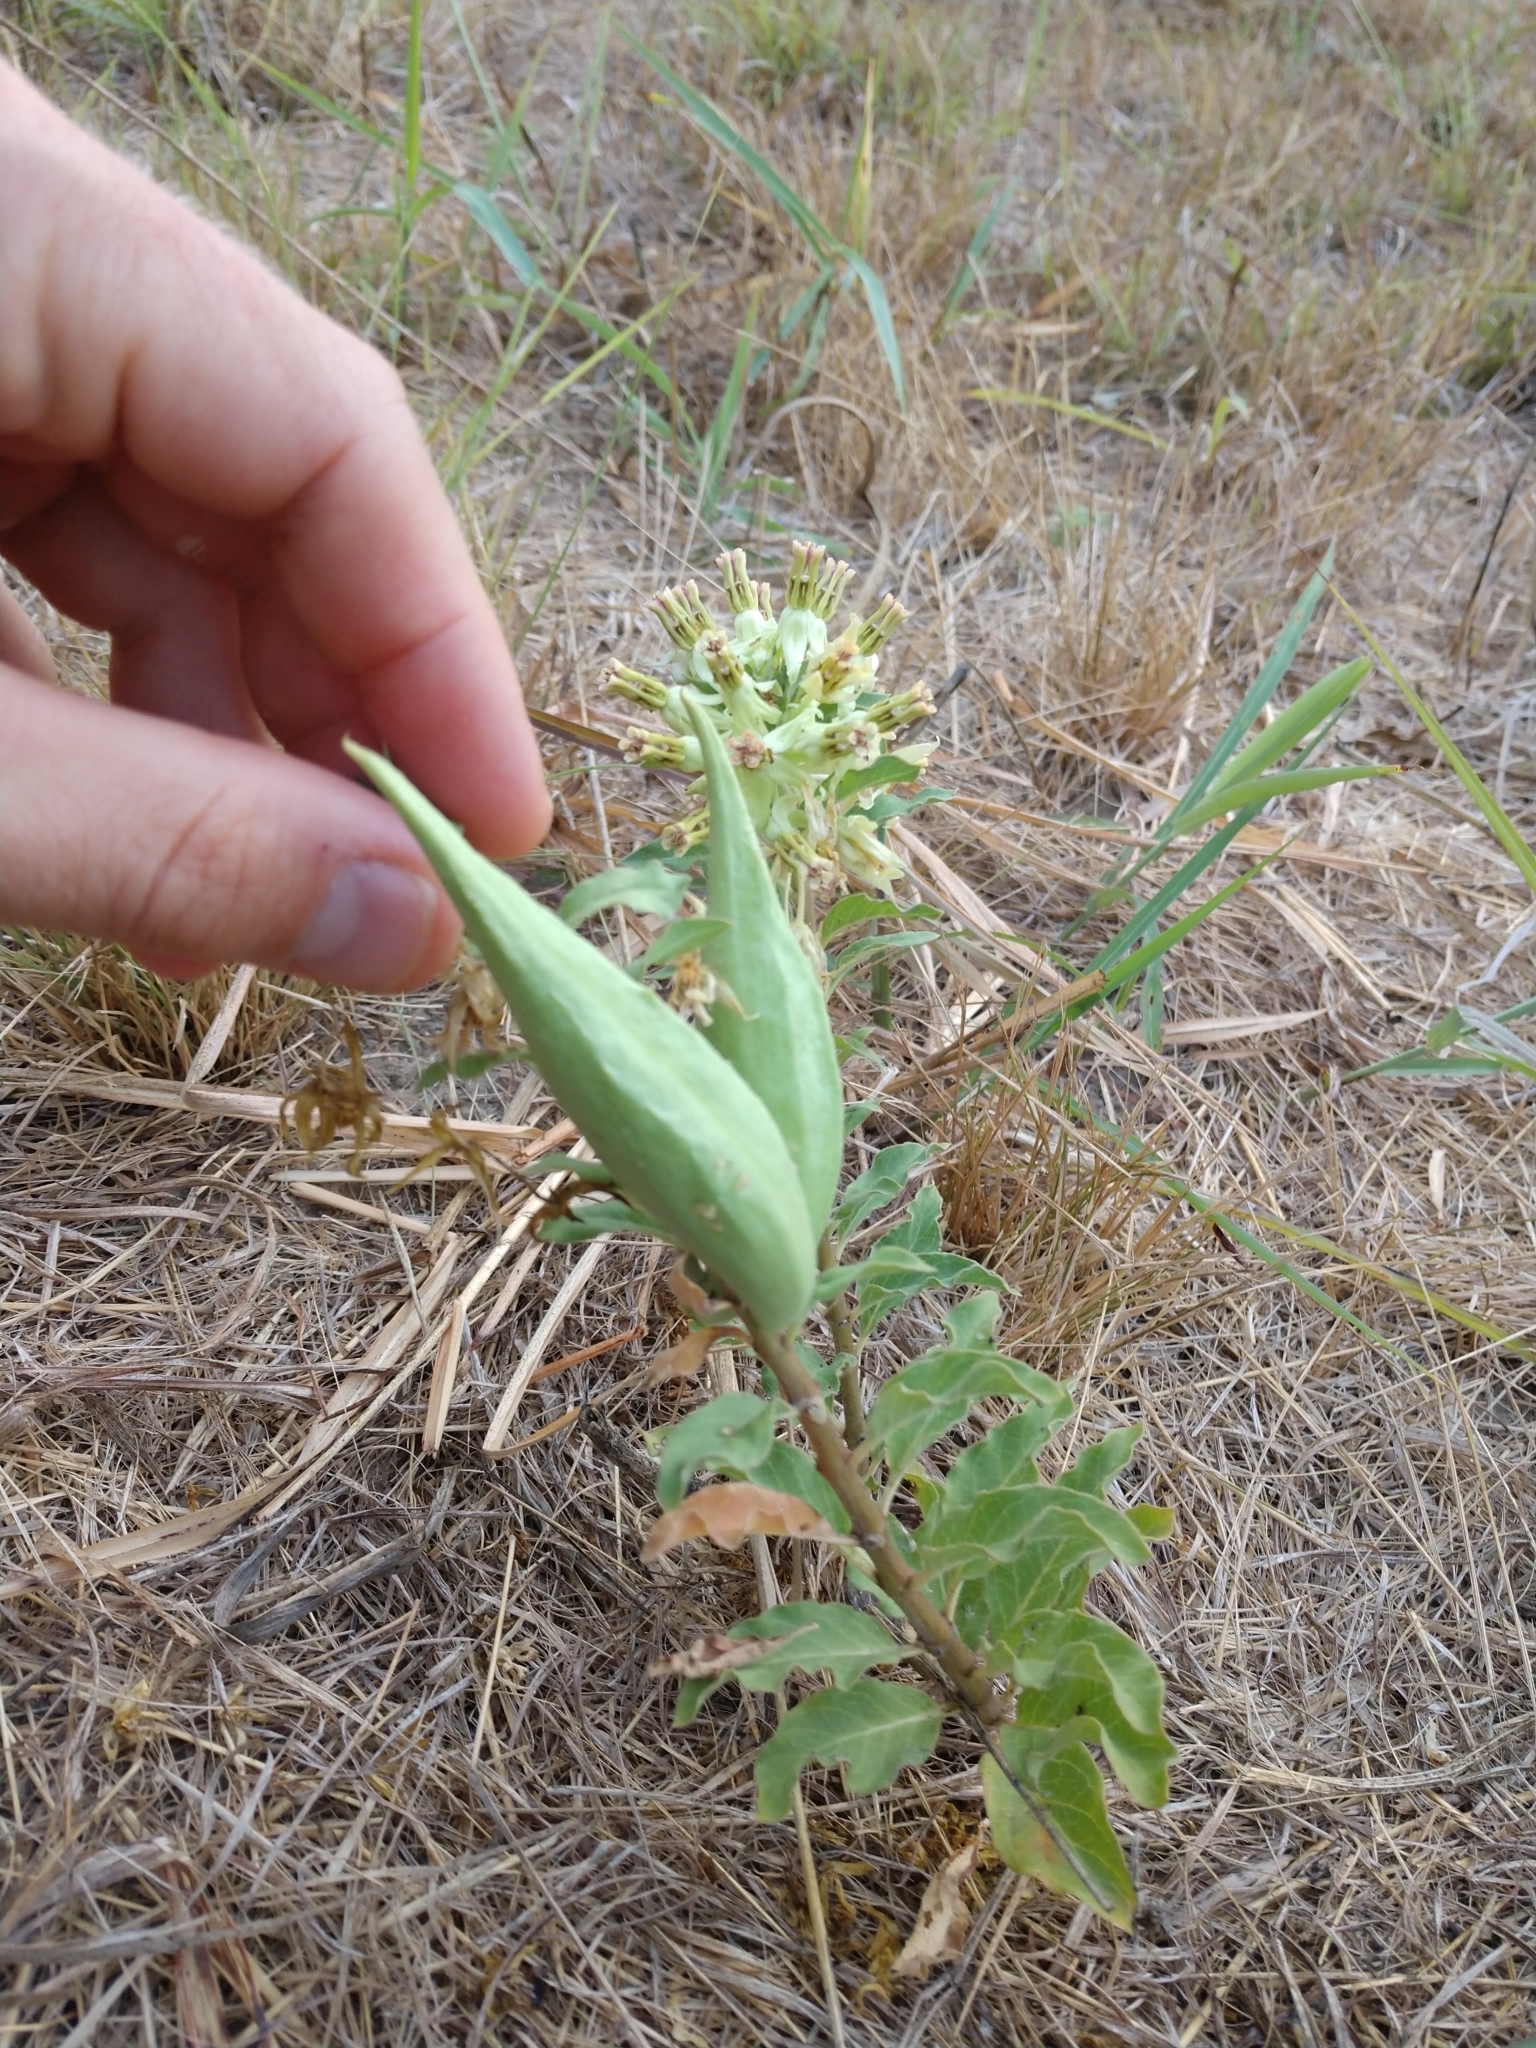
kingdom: Plantae
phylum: Tracheophyta
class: Magnoliopsida
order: Gentianales
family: Apocynaceae
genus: Asclepias
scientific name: Asclepias oenotheroides
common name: Zizotes milkweed
